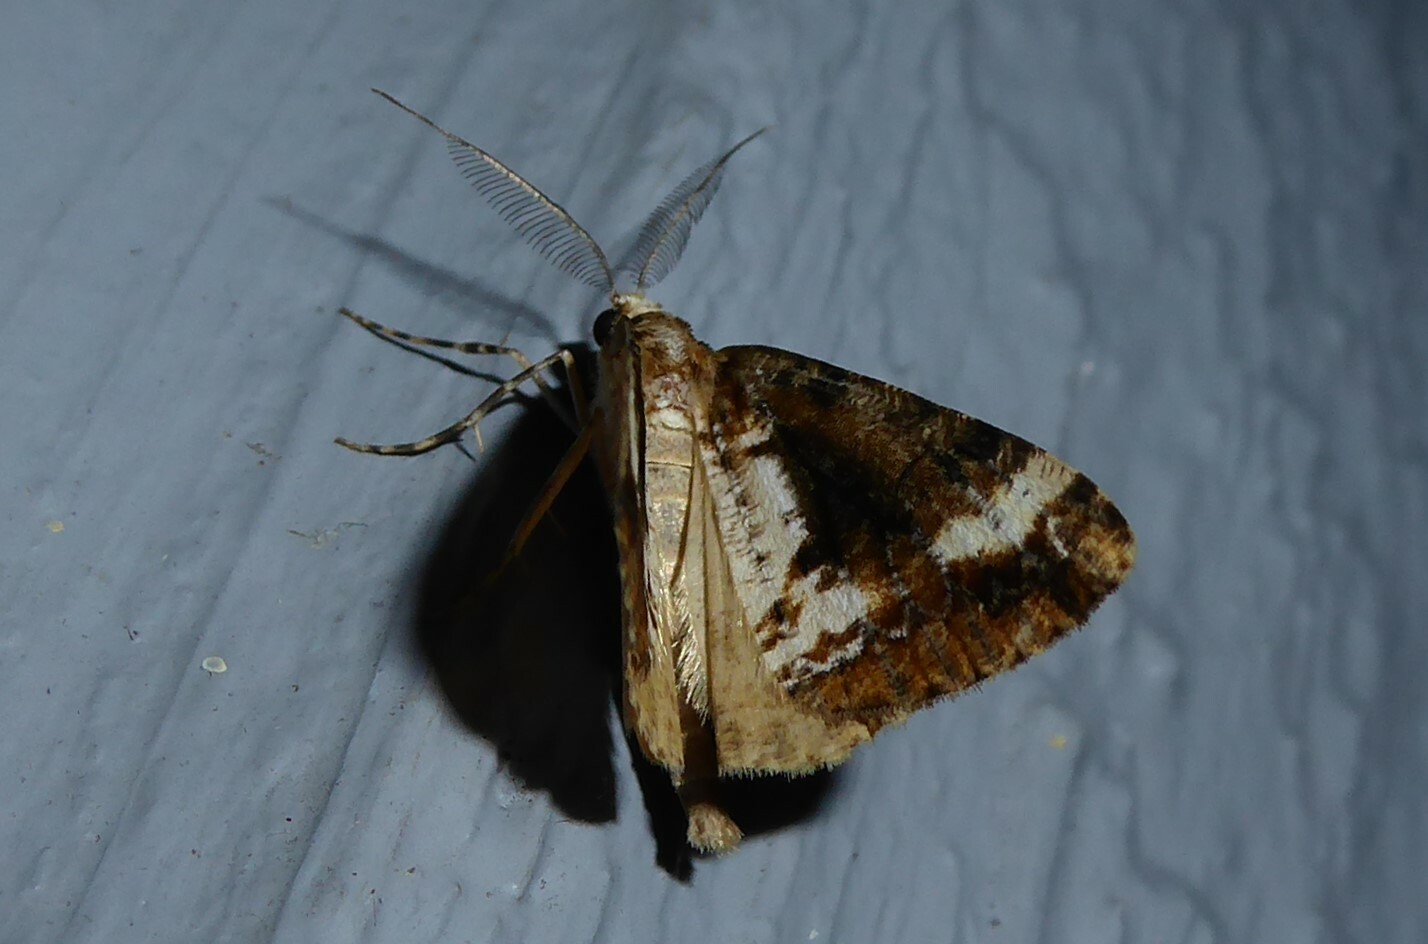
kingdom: Animalia
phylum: Arthropoda
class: Insecta
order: Lepidoptera
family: Geometridae
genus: Pseudocoremia
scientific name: Pseudocoremia leucelaea
